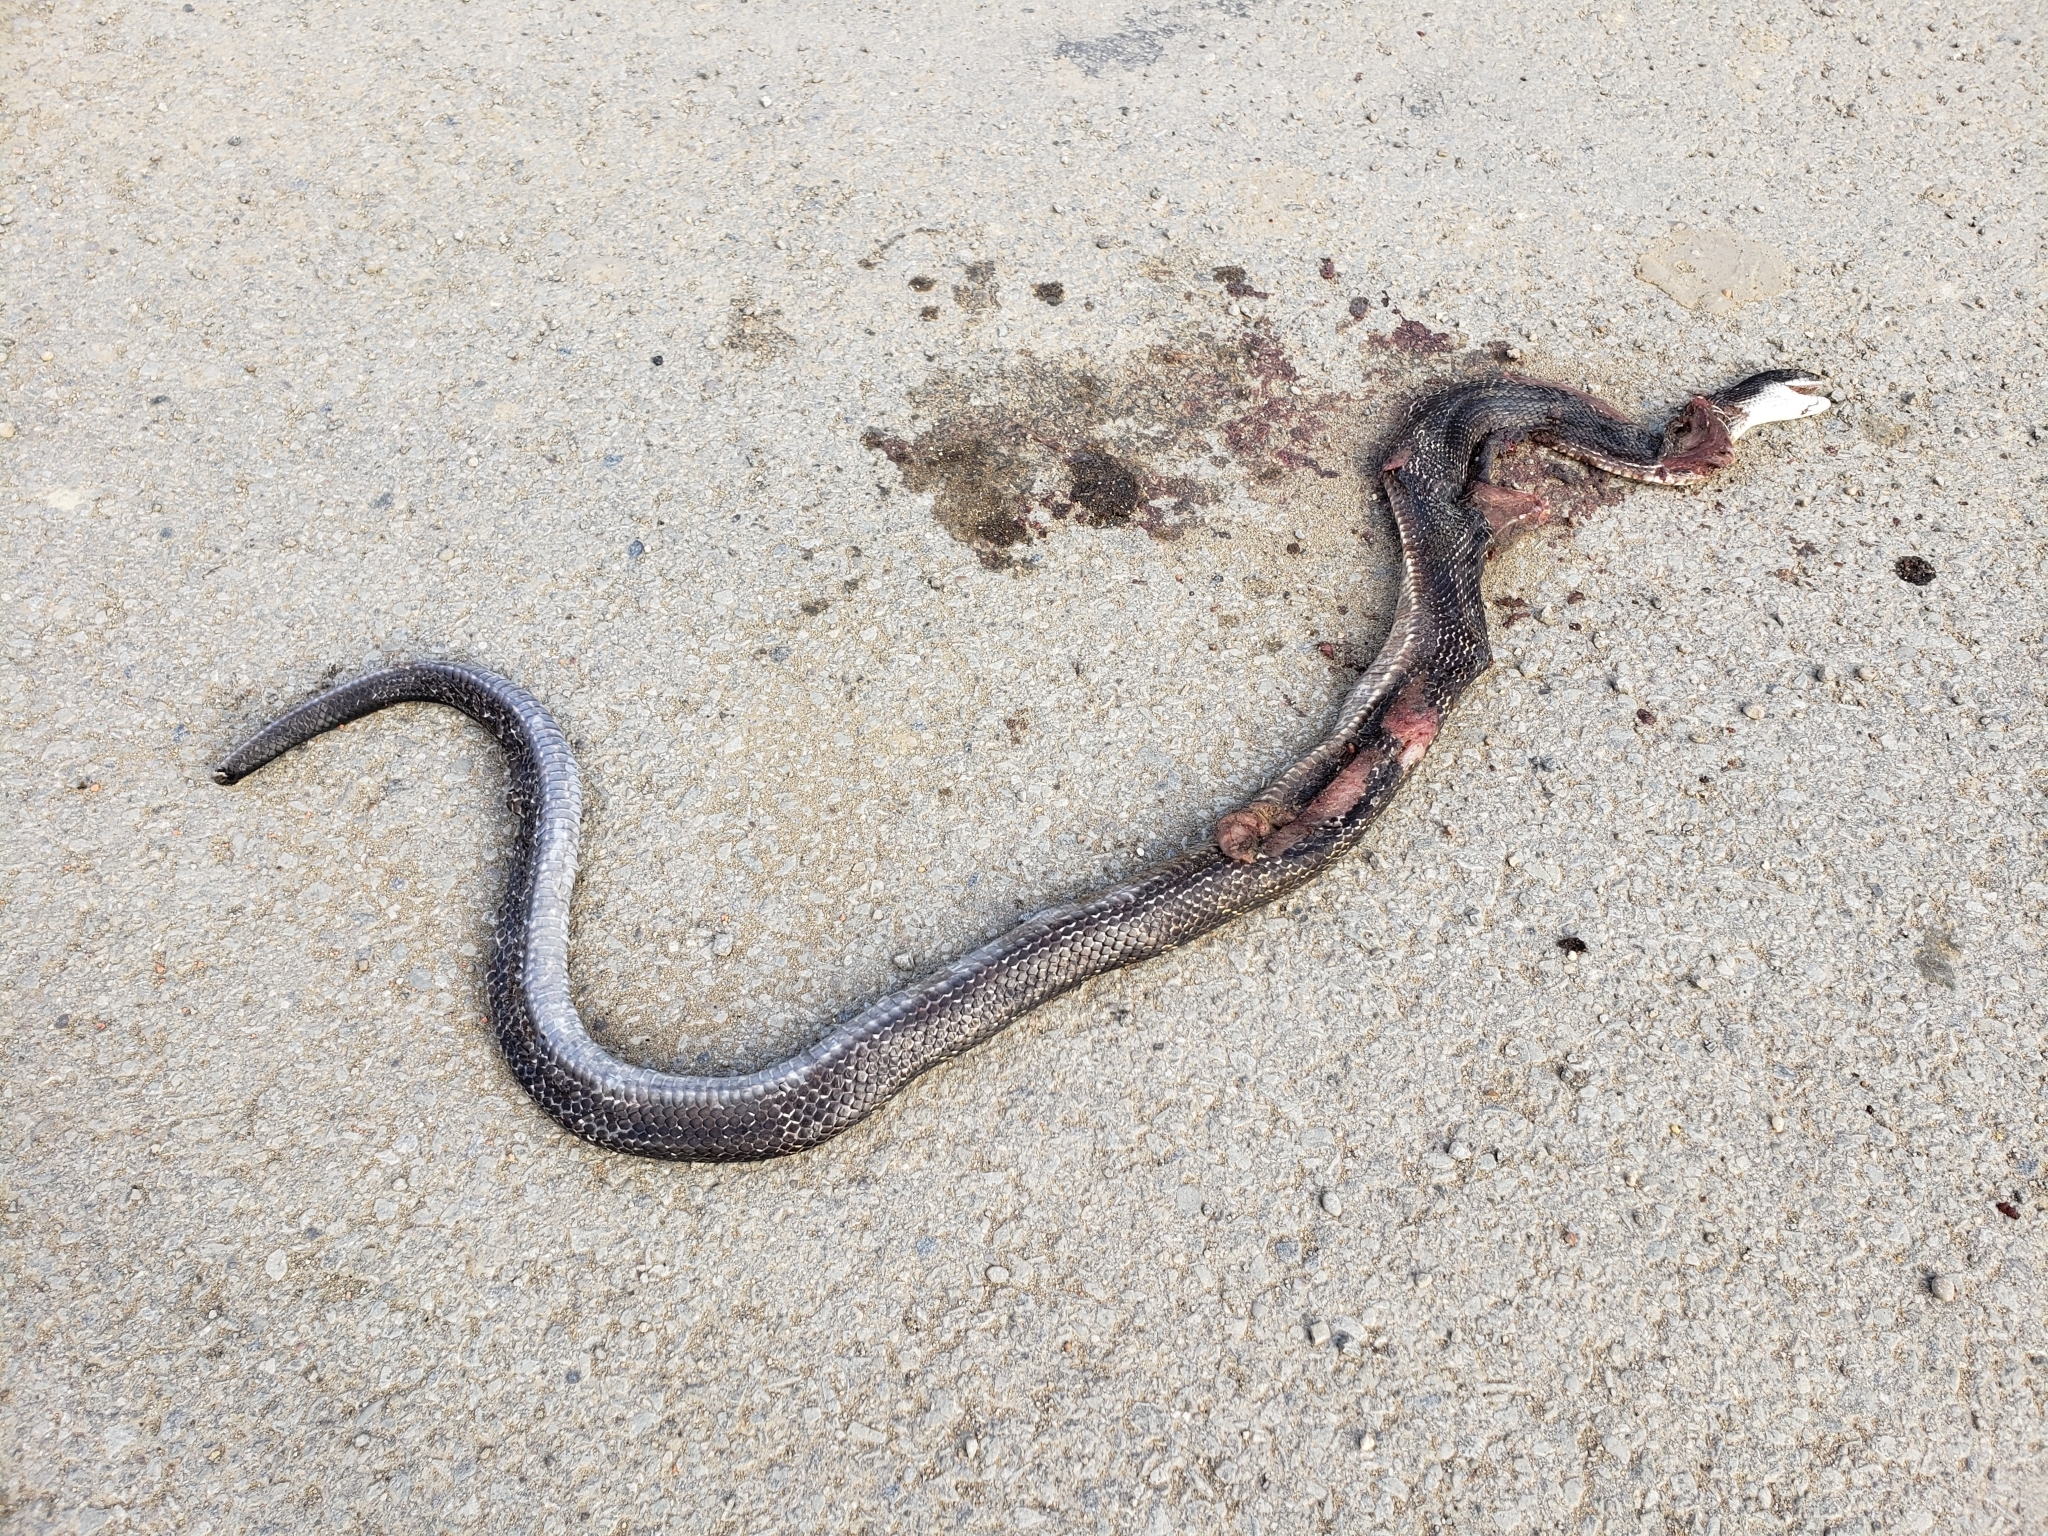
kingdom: Animalia
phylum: Chordata
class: Squamata
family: Colubridae
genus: Pantherophis
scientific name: Pantherophis spiloides
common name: Gray rat snake
